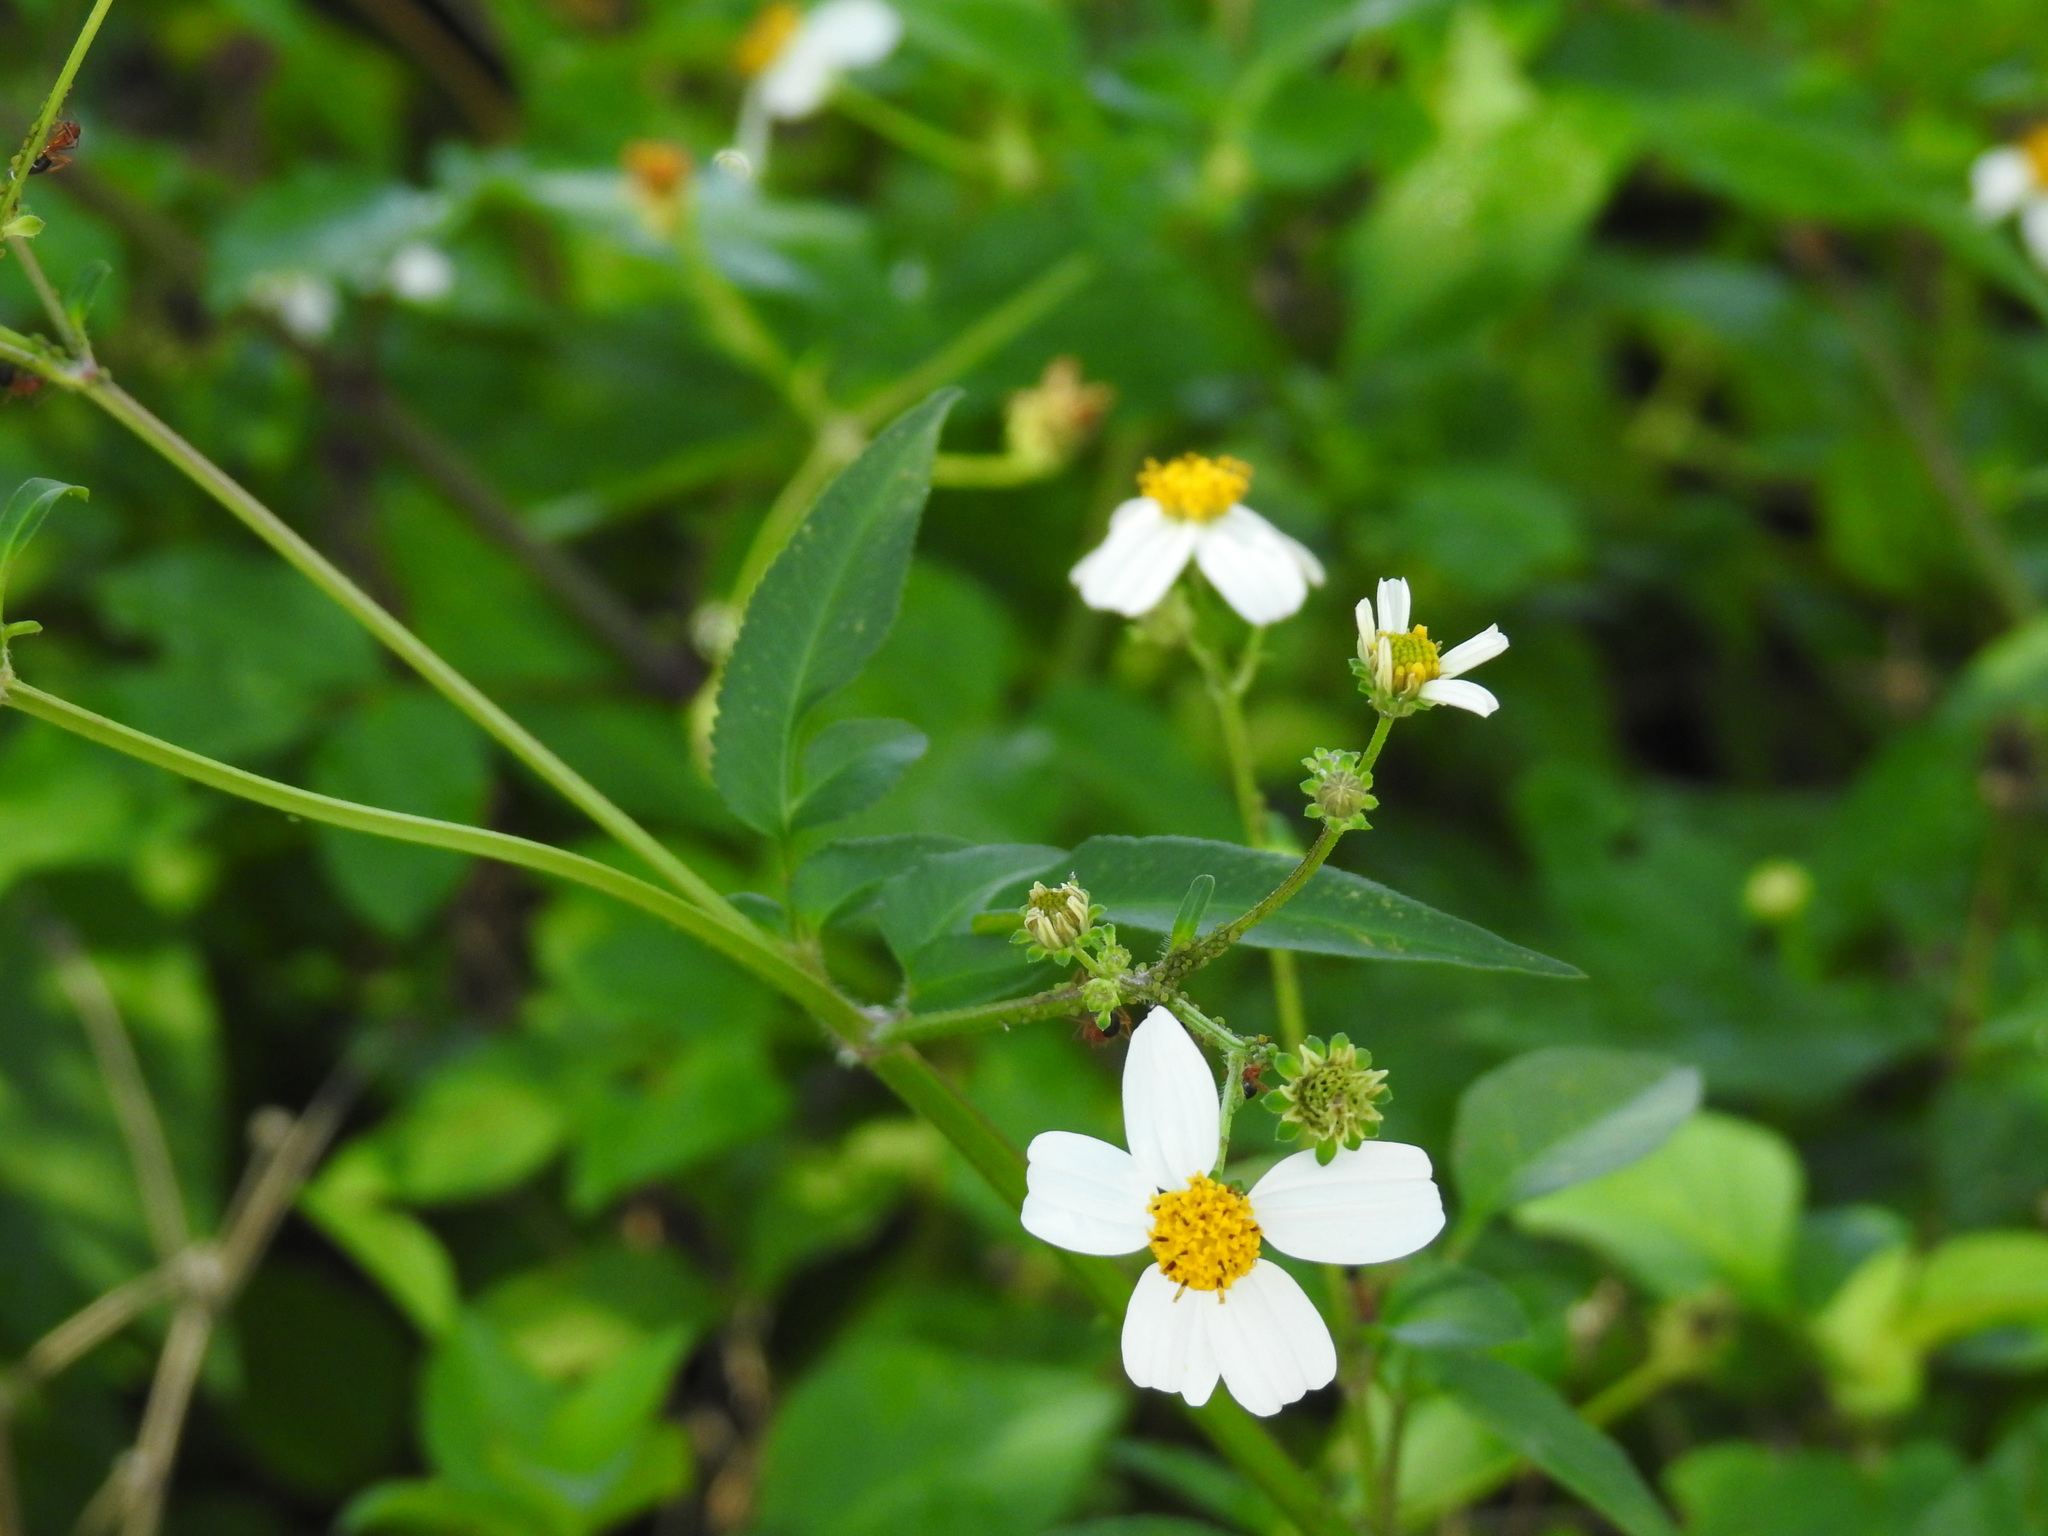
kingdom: Plantae
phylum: Tracheophyta
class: Magnoliopsida
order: Asterales
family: Asteraceae
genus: Bidens
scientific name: Bidens alba
